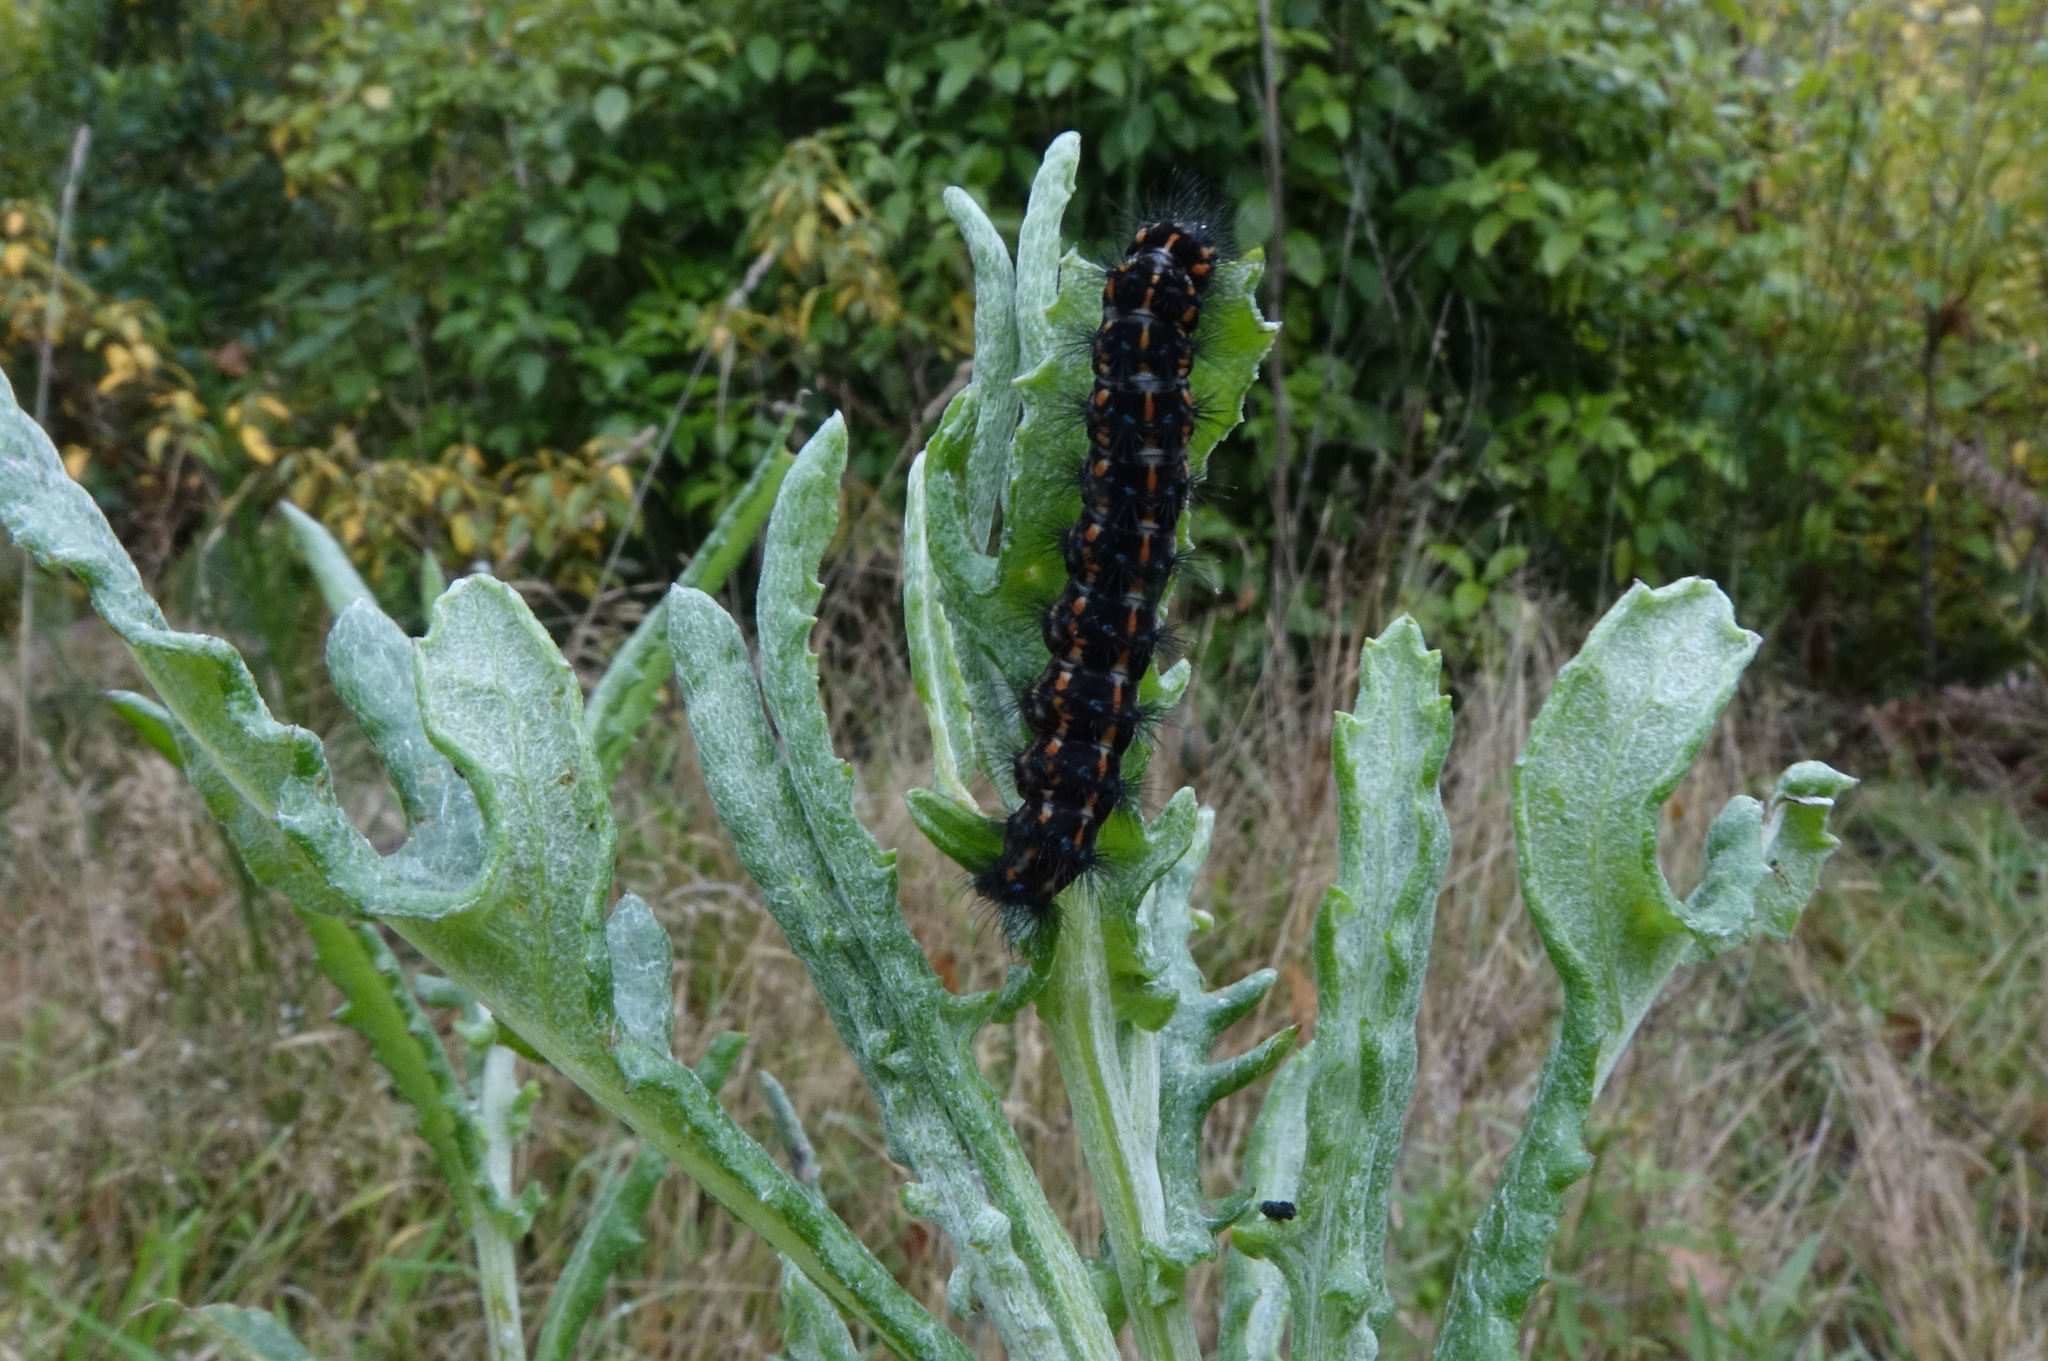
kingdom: Animalia
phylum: Arthropoda
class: Insecta
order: Lepidoptera
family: Erebidae
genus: Nyctemera
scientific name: Nyctemera annulatum
